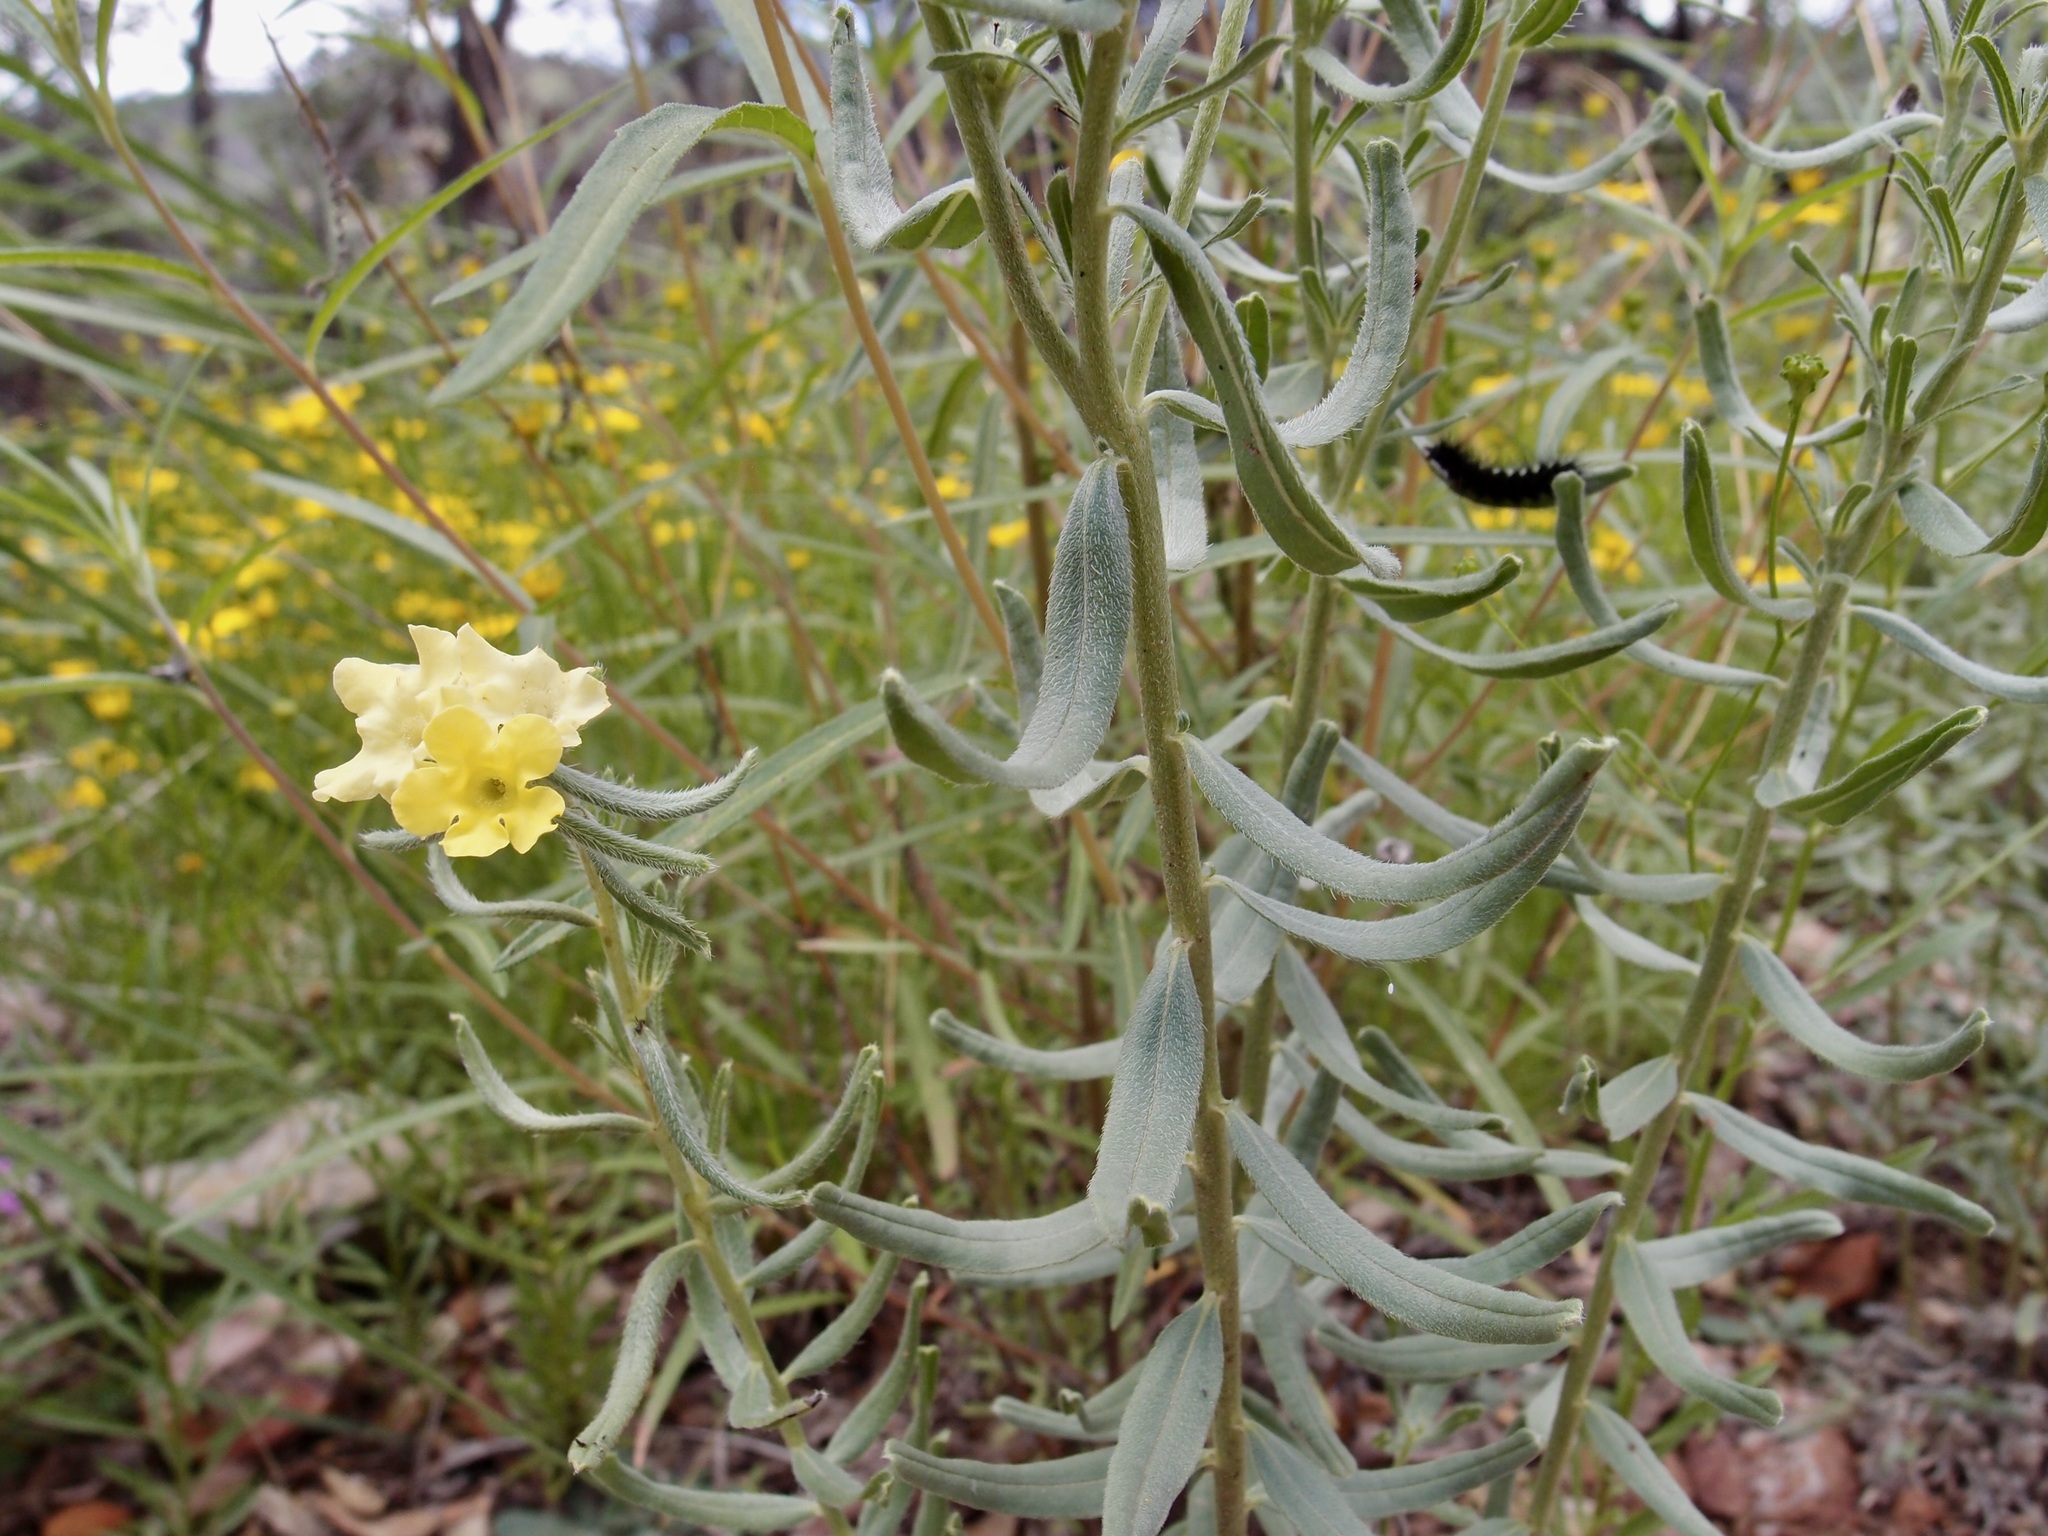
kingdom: Plantae
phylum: Tracheophyta
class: Magnoliopsida
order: Boraginales
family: Boraginaceae
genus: Lithospermum
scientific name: Lithospermum cobrense
